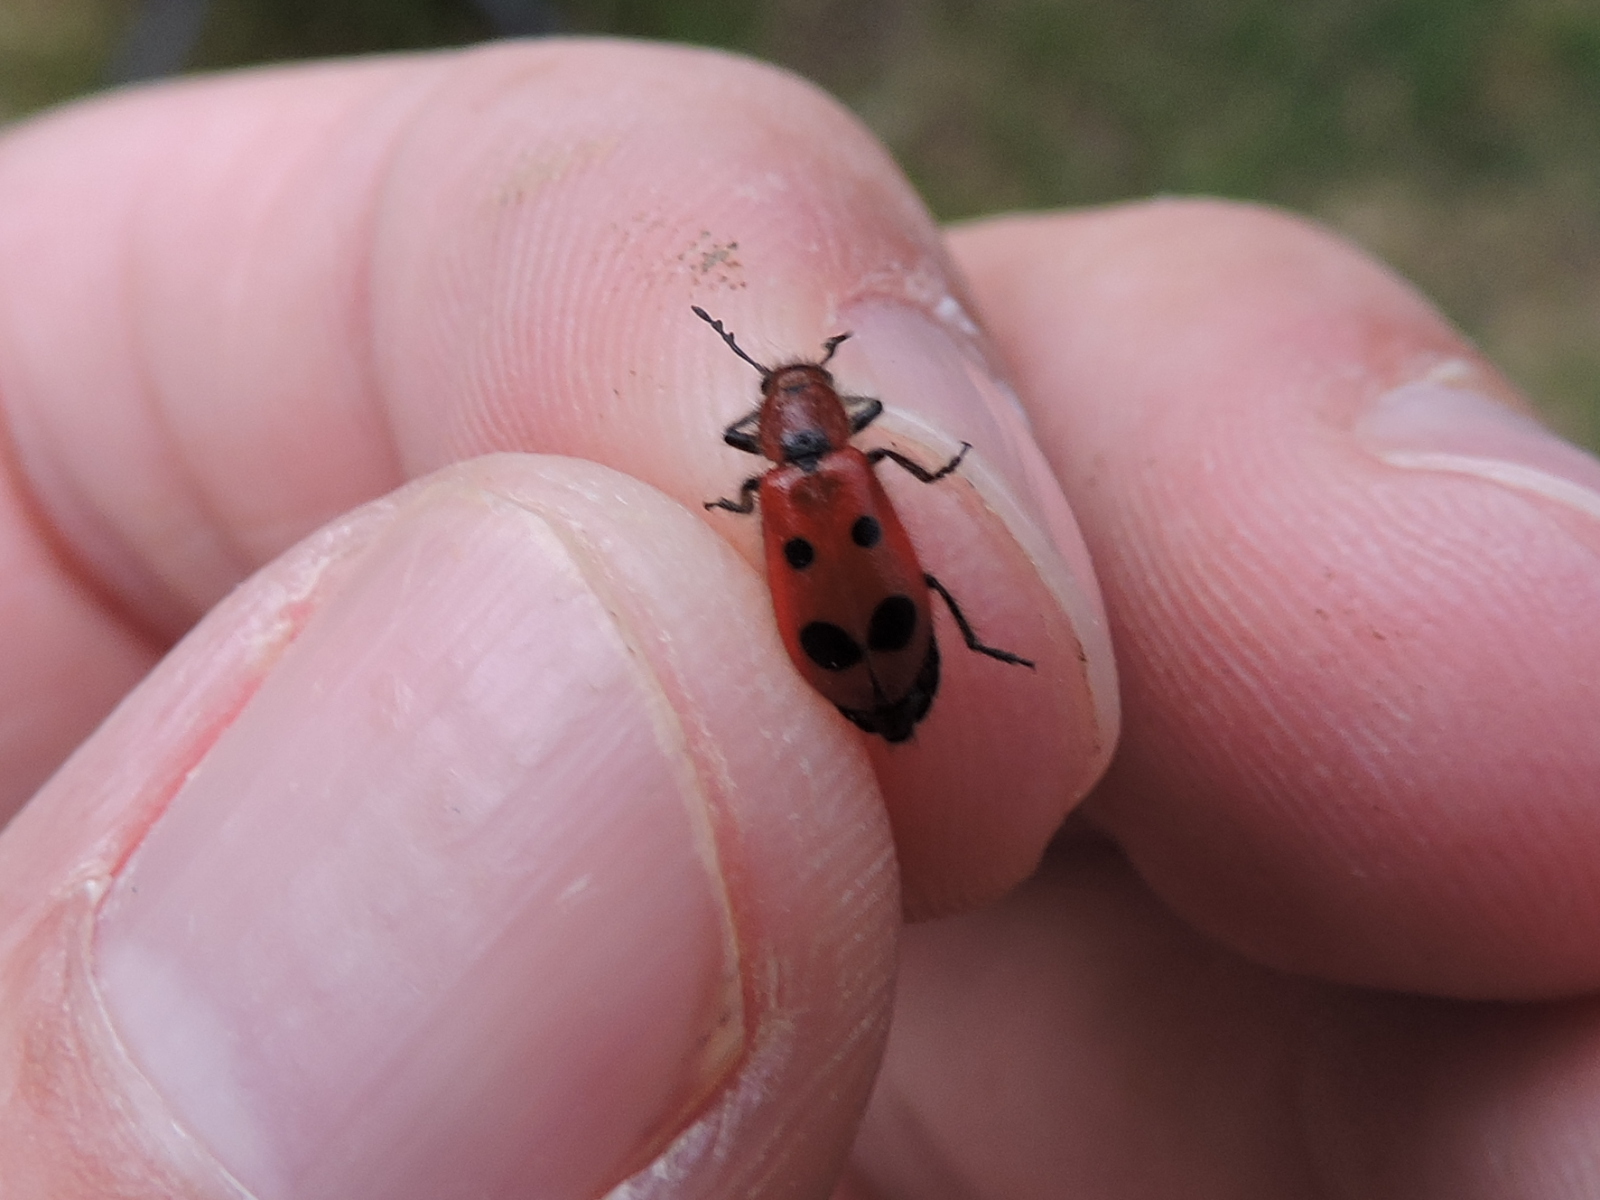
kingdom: Animalia
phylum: Arthropoda
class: Insecta
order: Coleoptera
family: Cleridae
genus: Pelonides
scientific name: Pelonides
